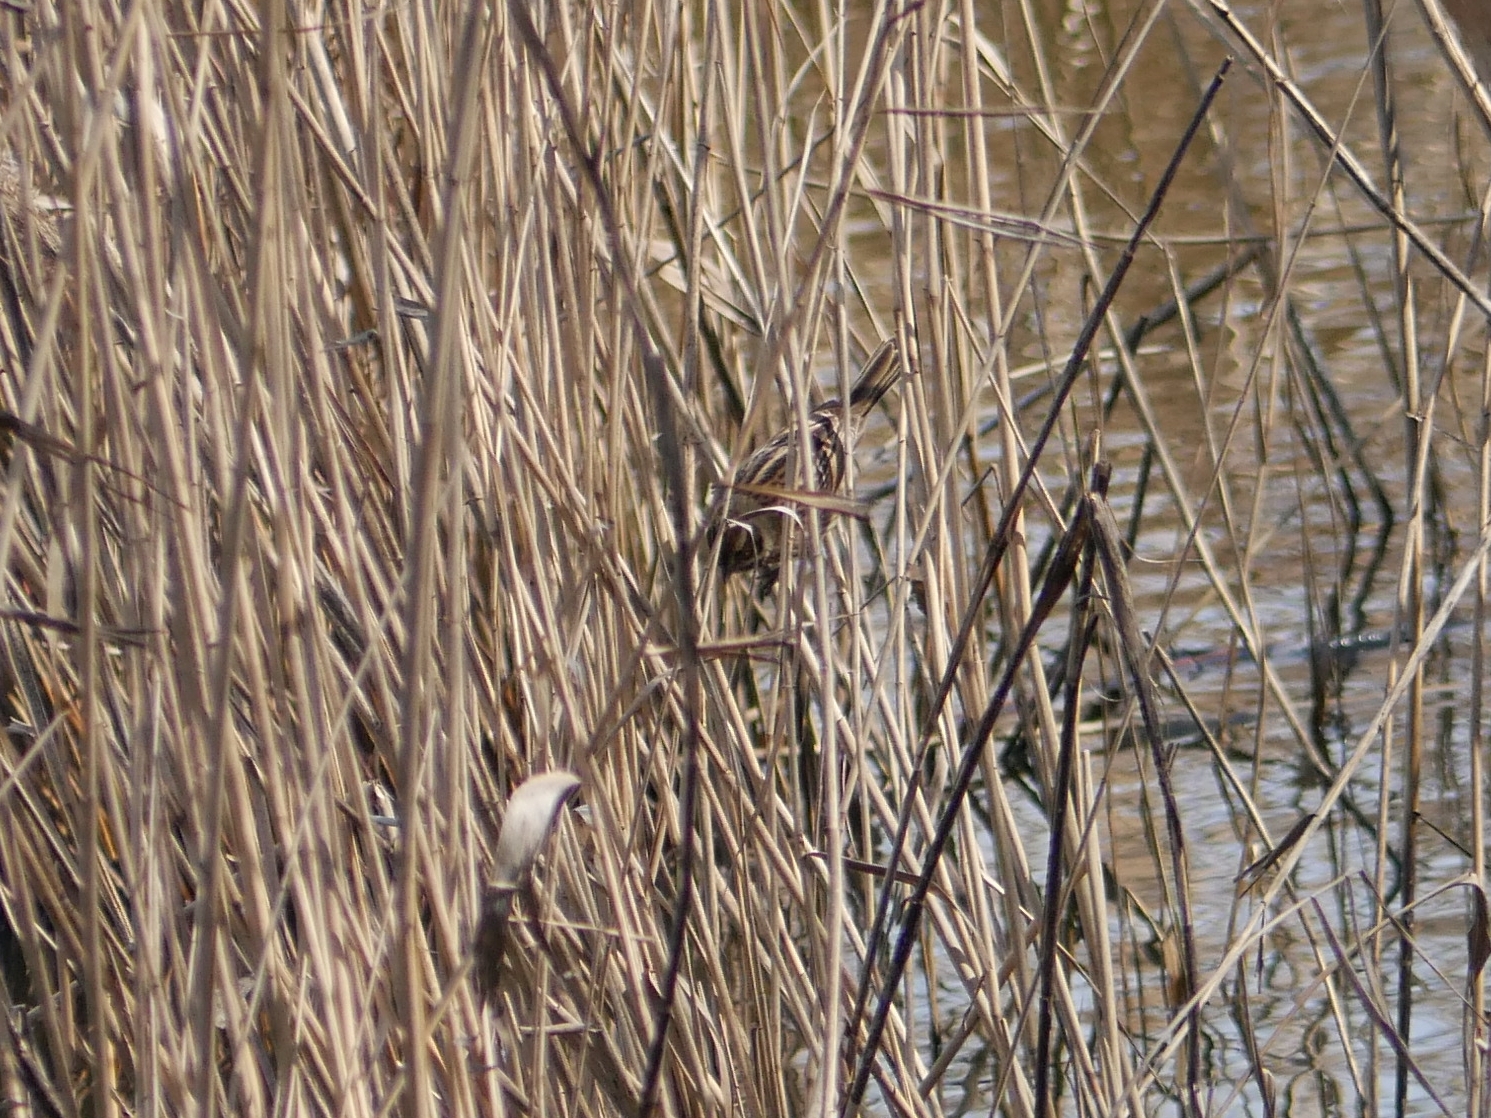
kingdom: Animalia
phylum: Chordata
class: Aves
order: Passeriformes
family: Emberizidae
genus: Emberiza
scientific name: Emberiza schoeniclus
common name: Reed bunting
